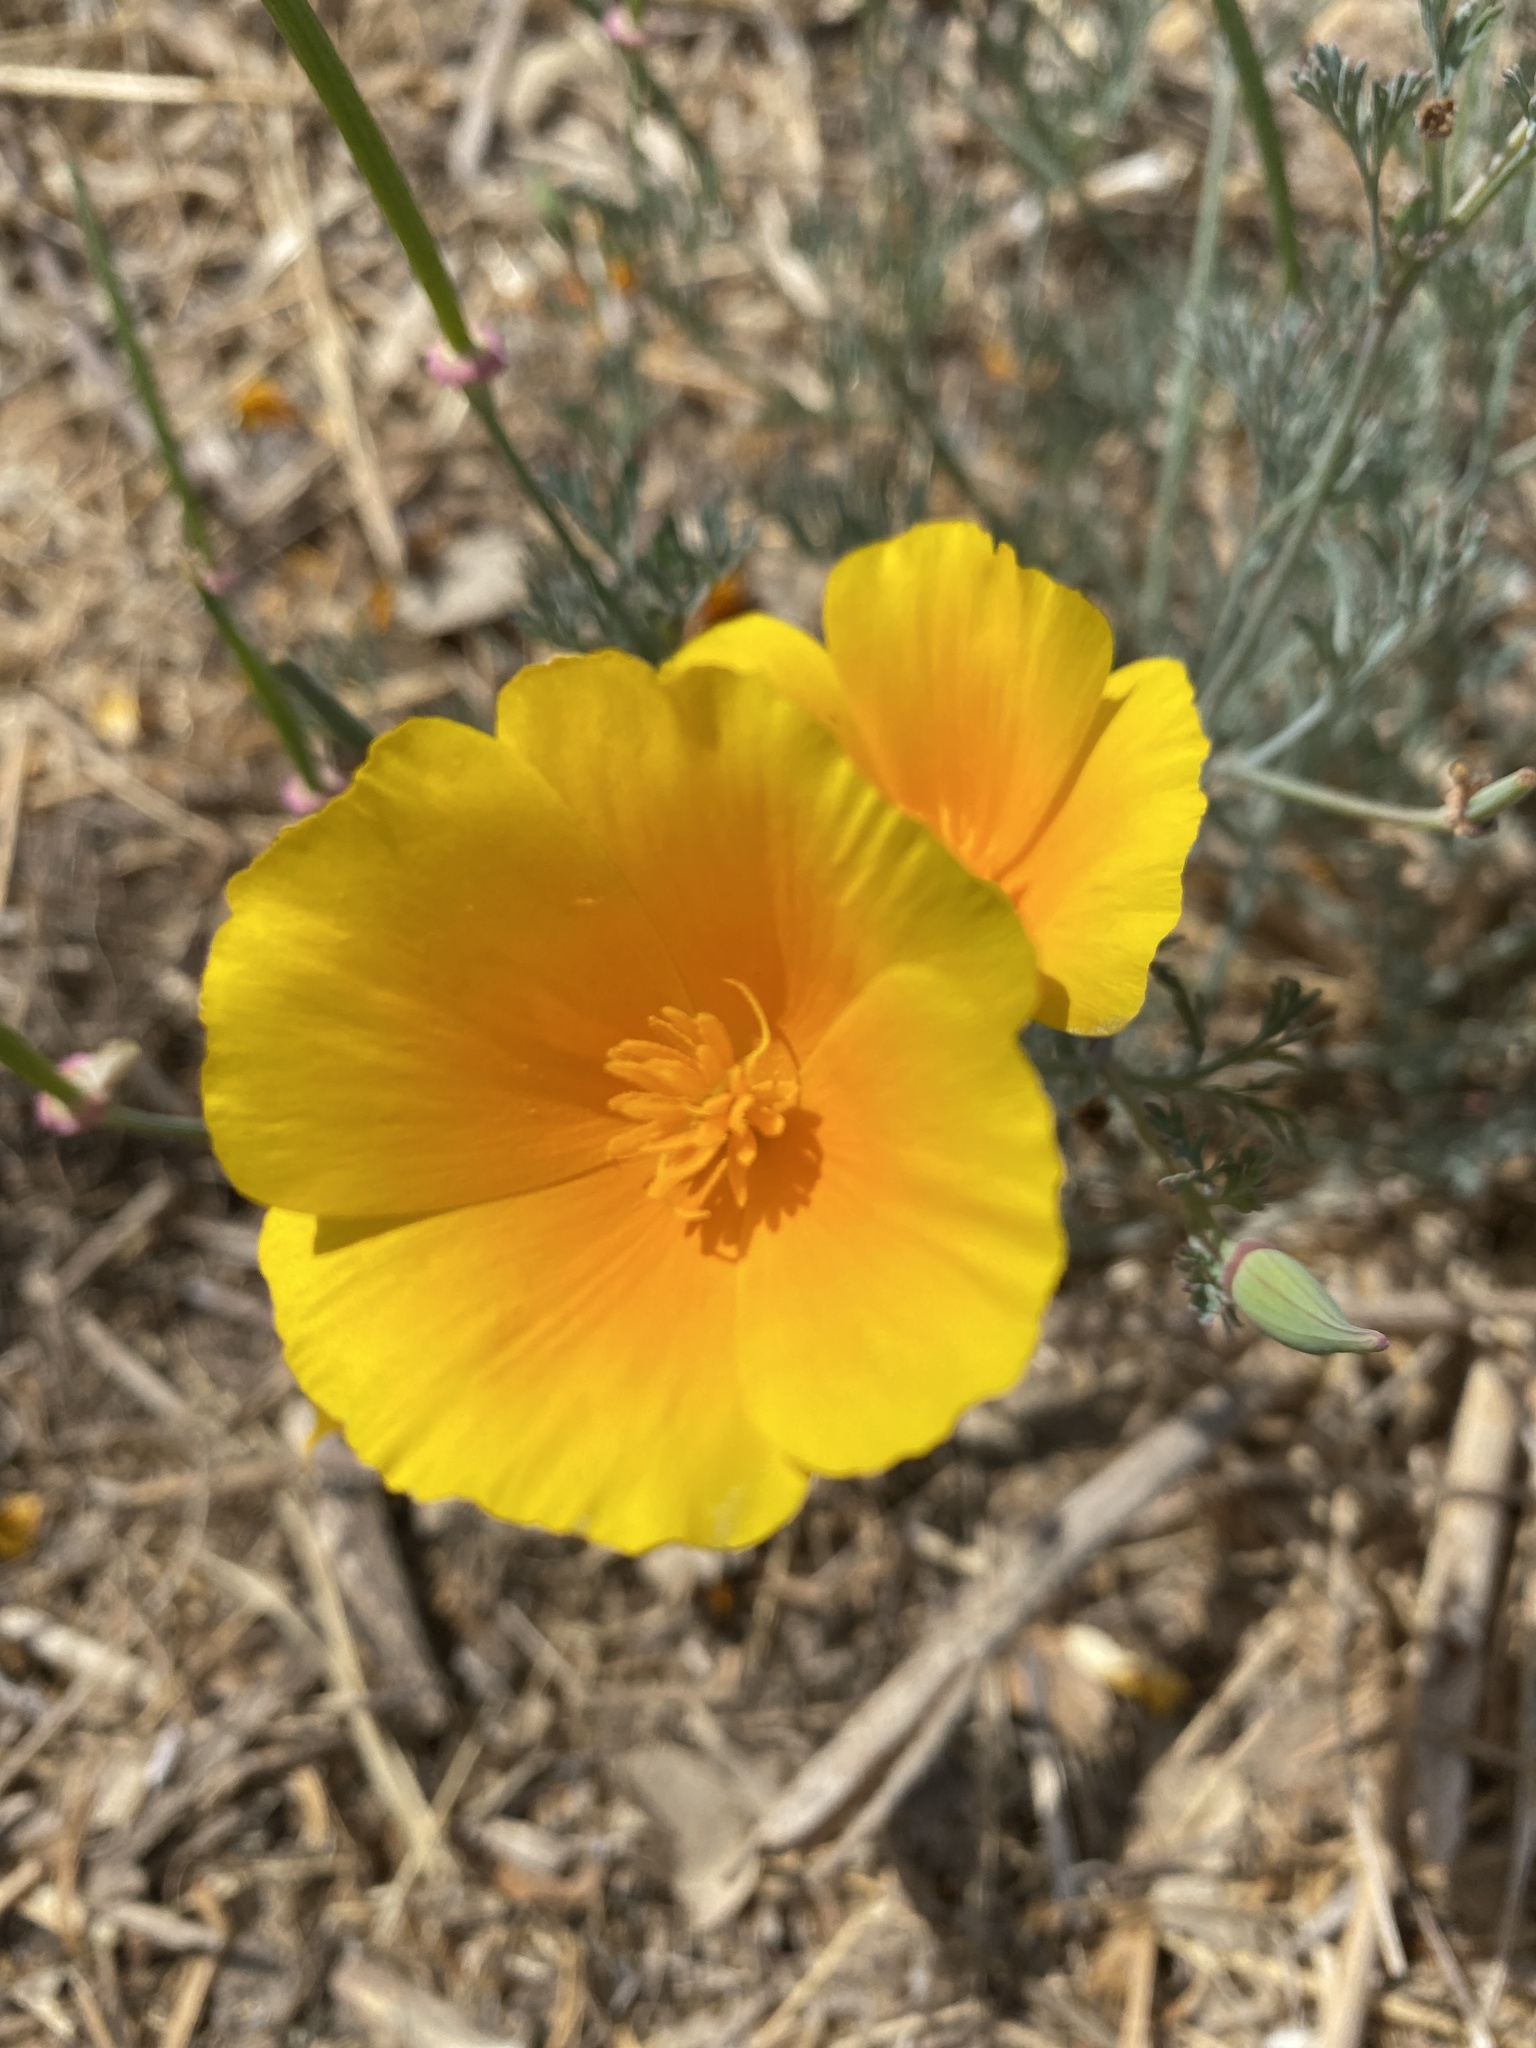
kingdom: Plantae
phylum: Tracheophyta
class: Magnoliopsida
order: Ranunculales
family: Papaveraceae
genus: Eschscholzia
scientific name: Eschscholzia californica
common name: California poppy
